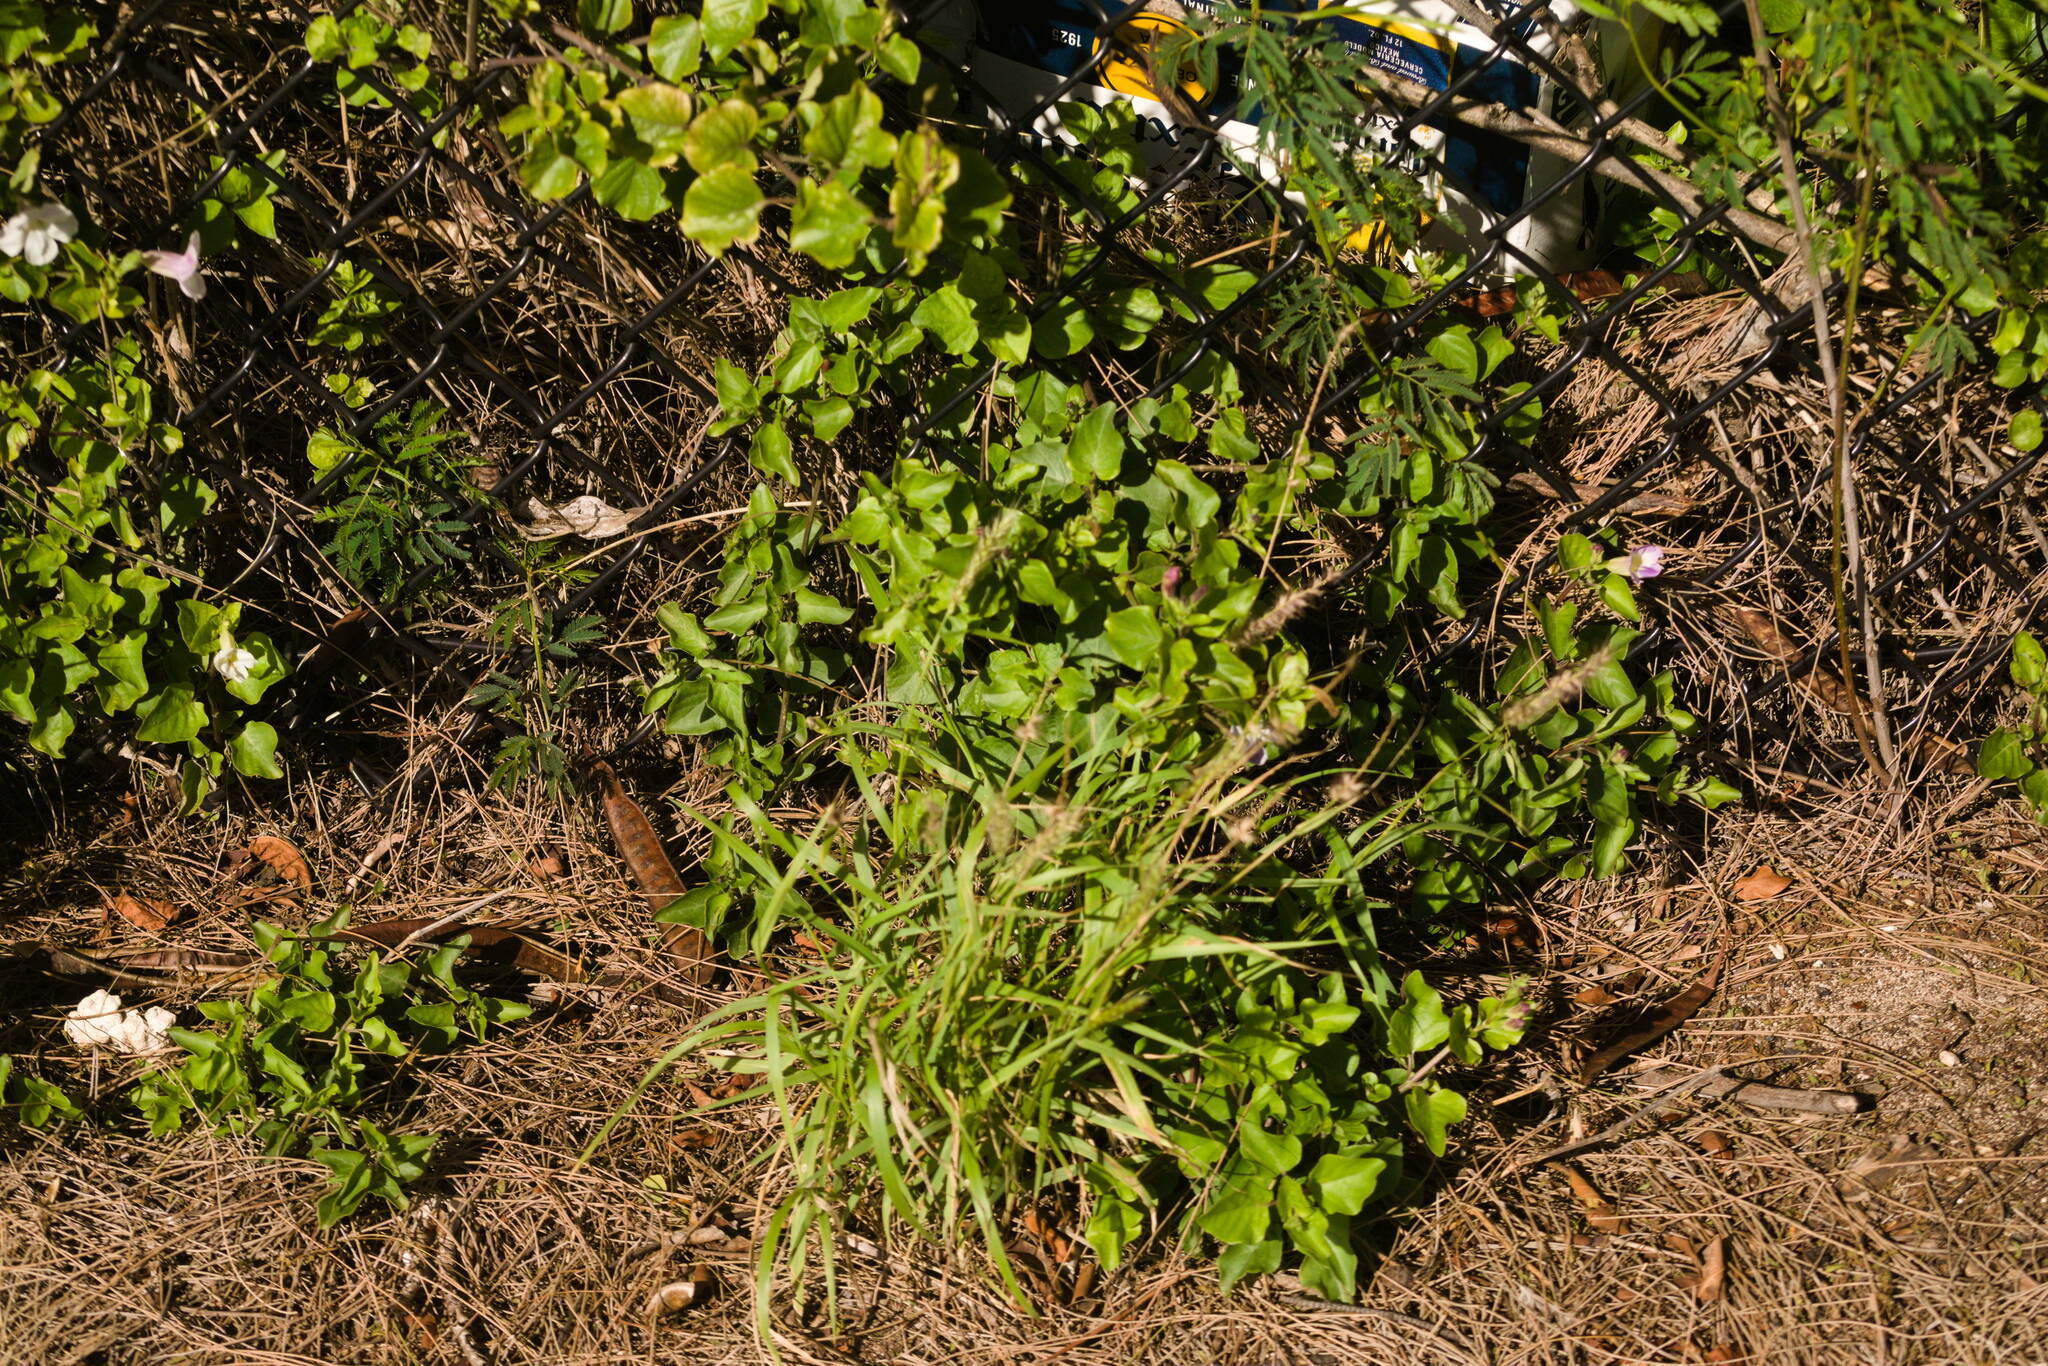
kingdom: Plantae
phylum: Tracheophyta
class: Liliopsida
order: Poales
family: Poaceae
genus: Cenchrus
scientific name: Cenchrus ciliaris
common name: Buffelgrass
